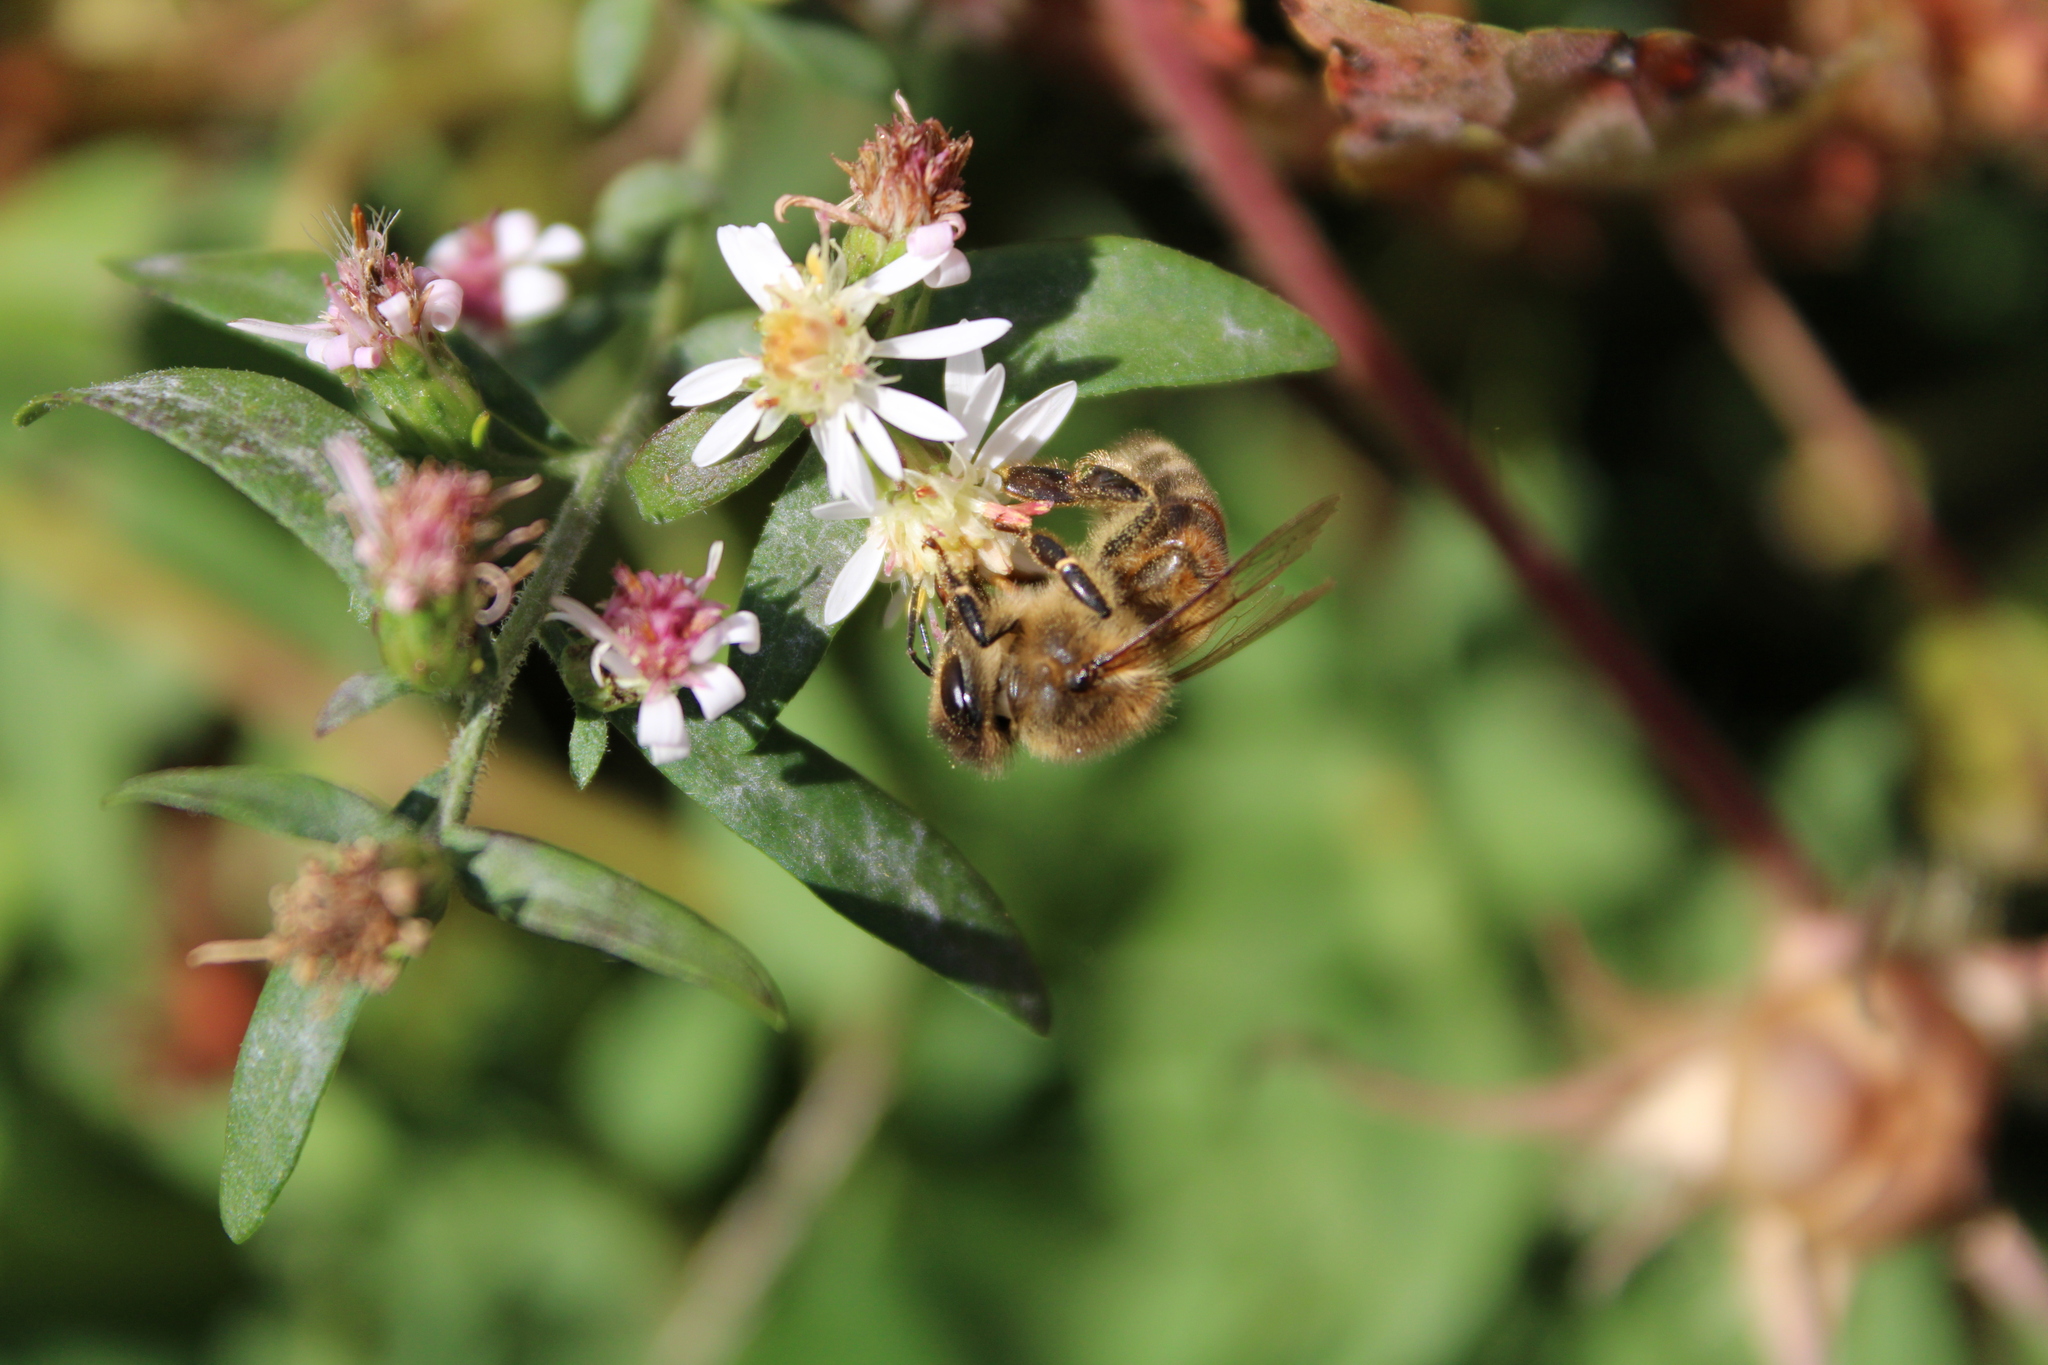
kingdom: Animalia
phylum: Arthropoda
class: Insecta
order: Hymenoptera
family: Apidae
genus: Apis
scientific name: Apis mellifera
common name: Honey bee
